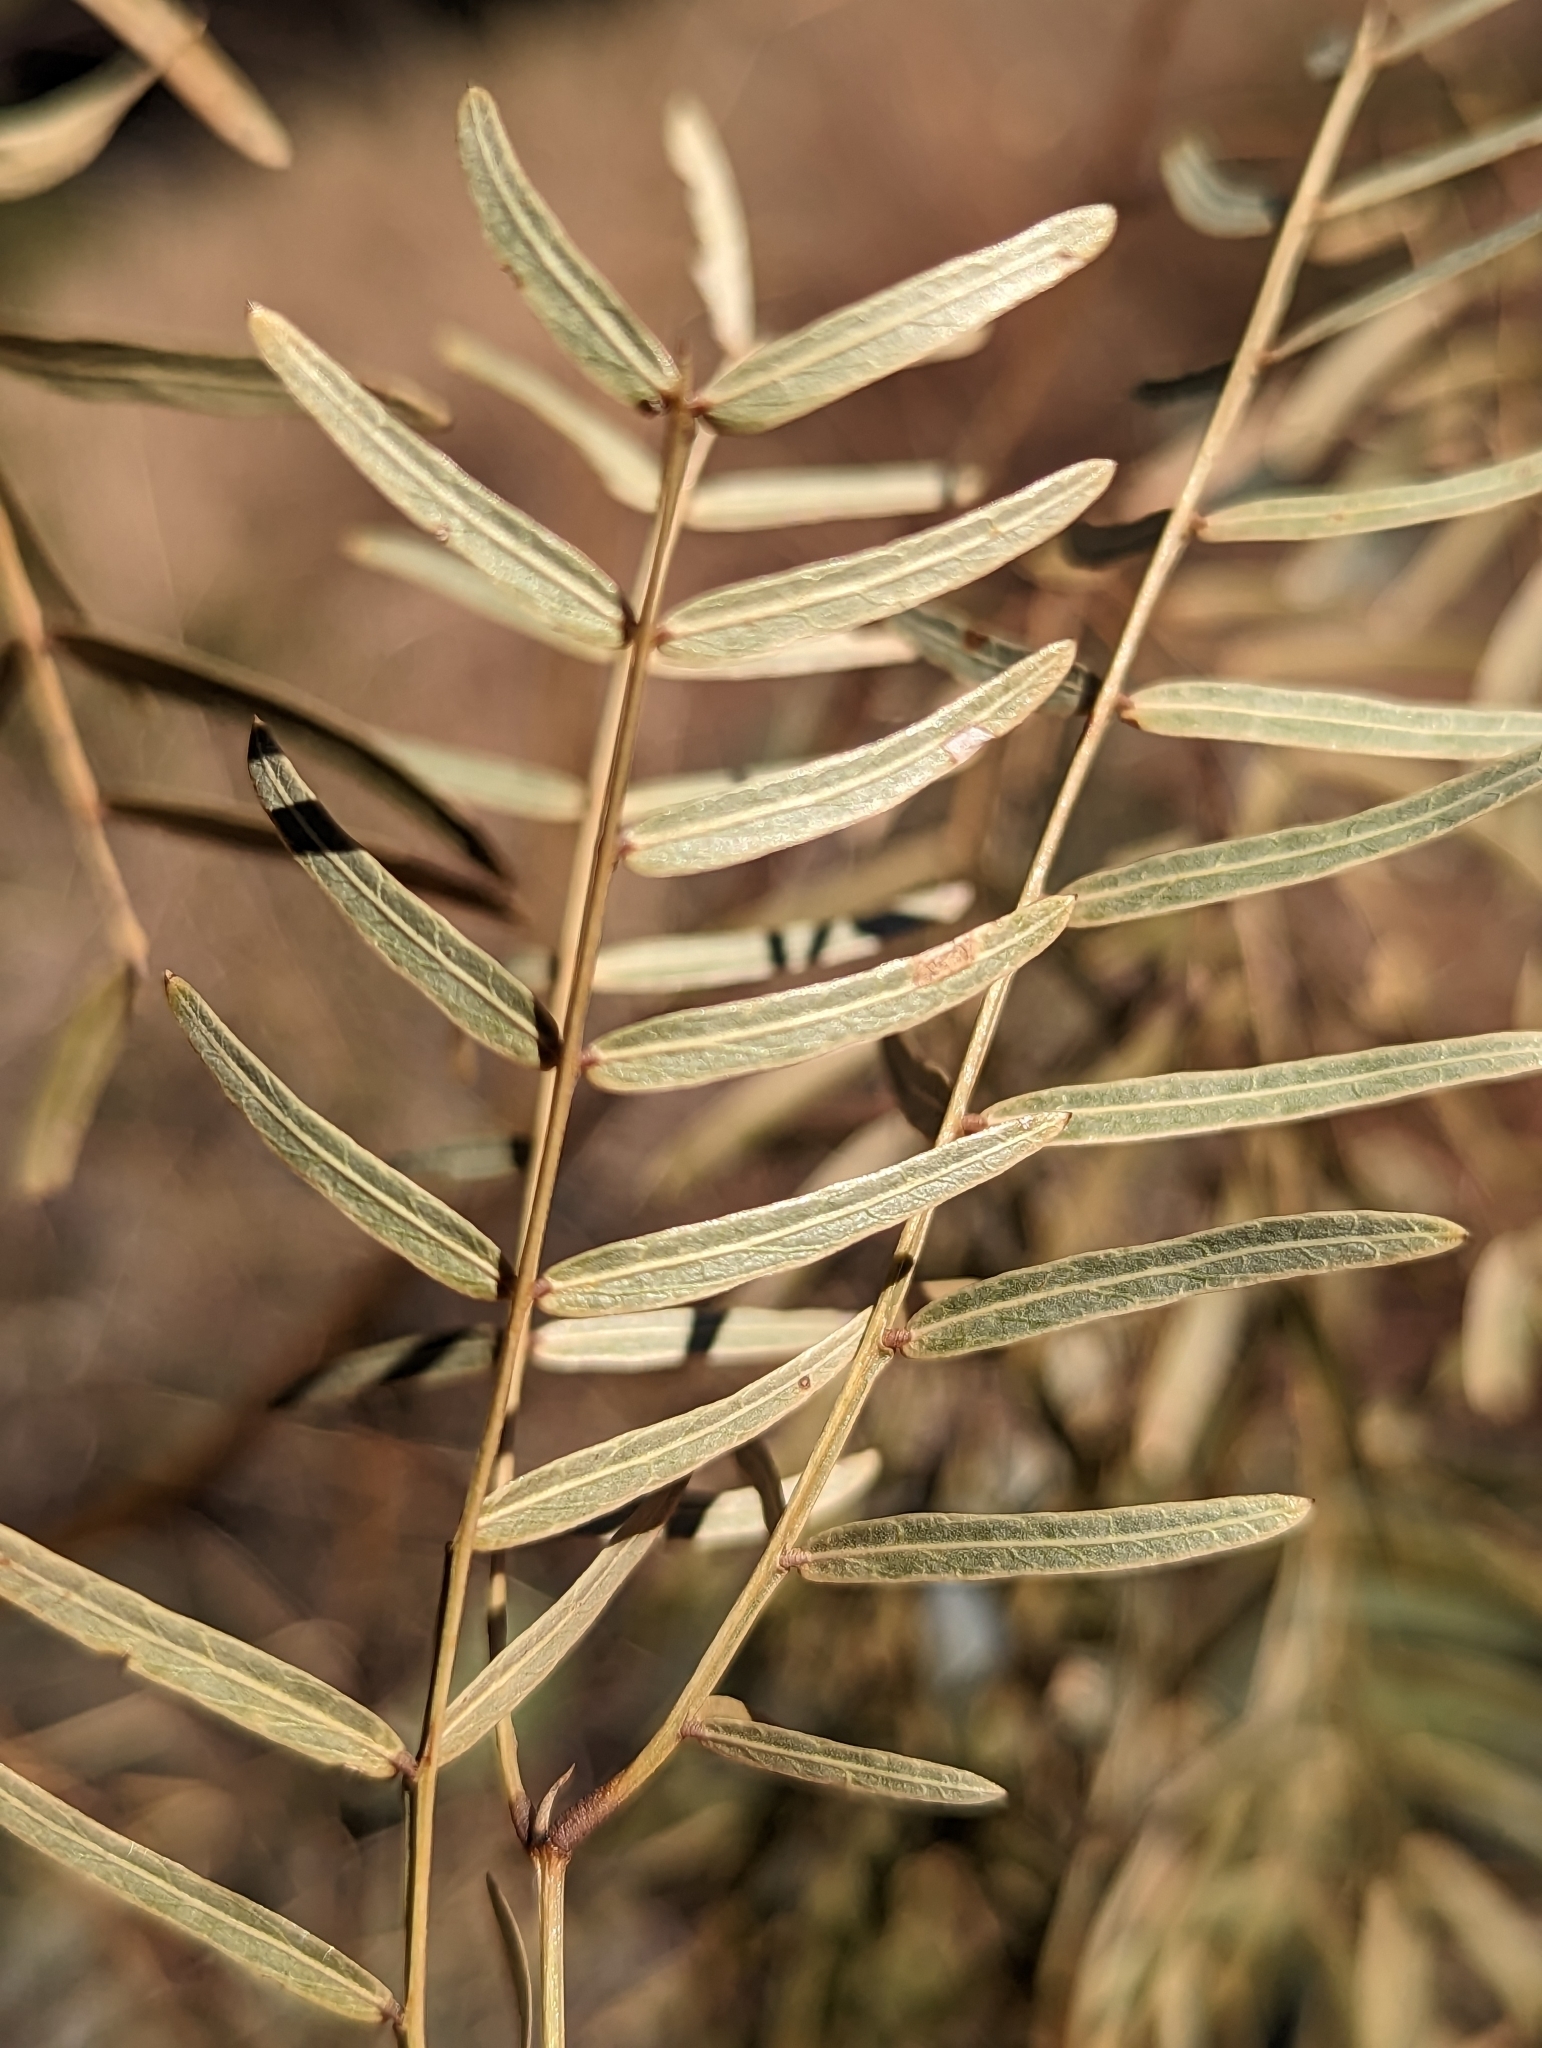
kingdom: Plantae
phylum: Tracheophyta
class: Magnoliopsida
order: Fabales
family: Fabaceae
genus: Prosopis
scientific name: Prosopis glandulosa
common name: Honey mesquite
